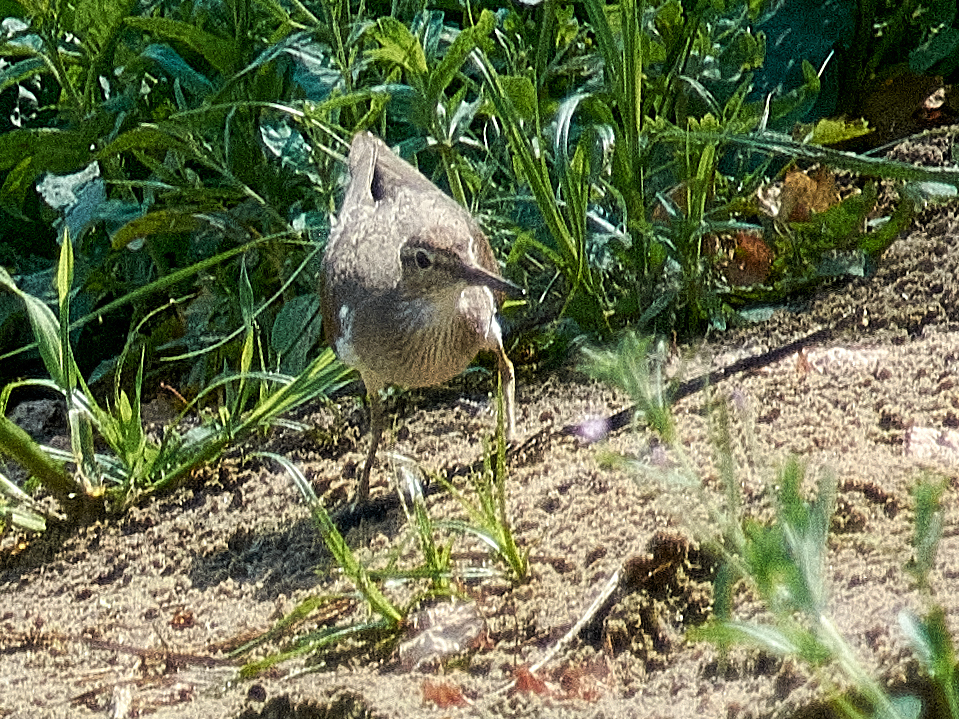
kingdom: Animalia
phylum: Chordata
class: Aves
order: Charadriiformes
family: Scolopacidae
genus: Actitis
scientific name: Actitis hypoleucos
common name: Common sandpiper
